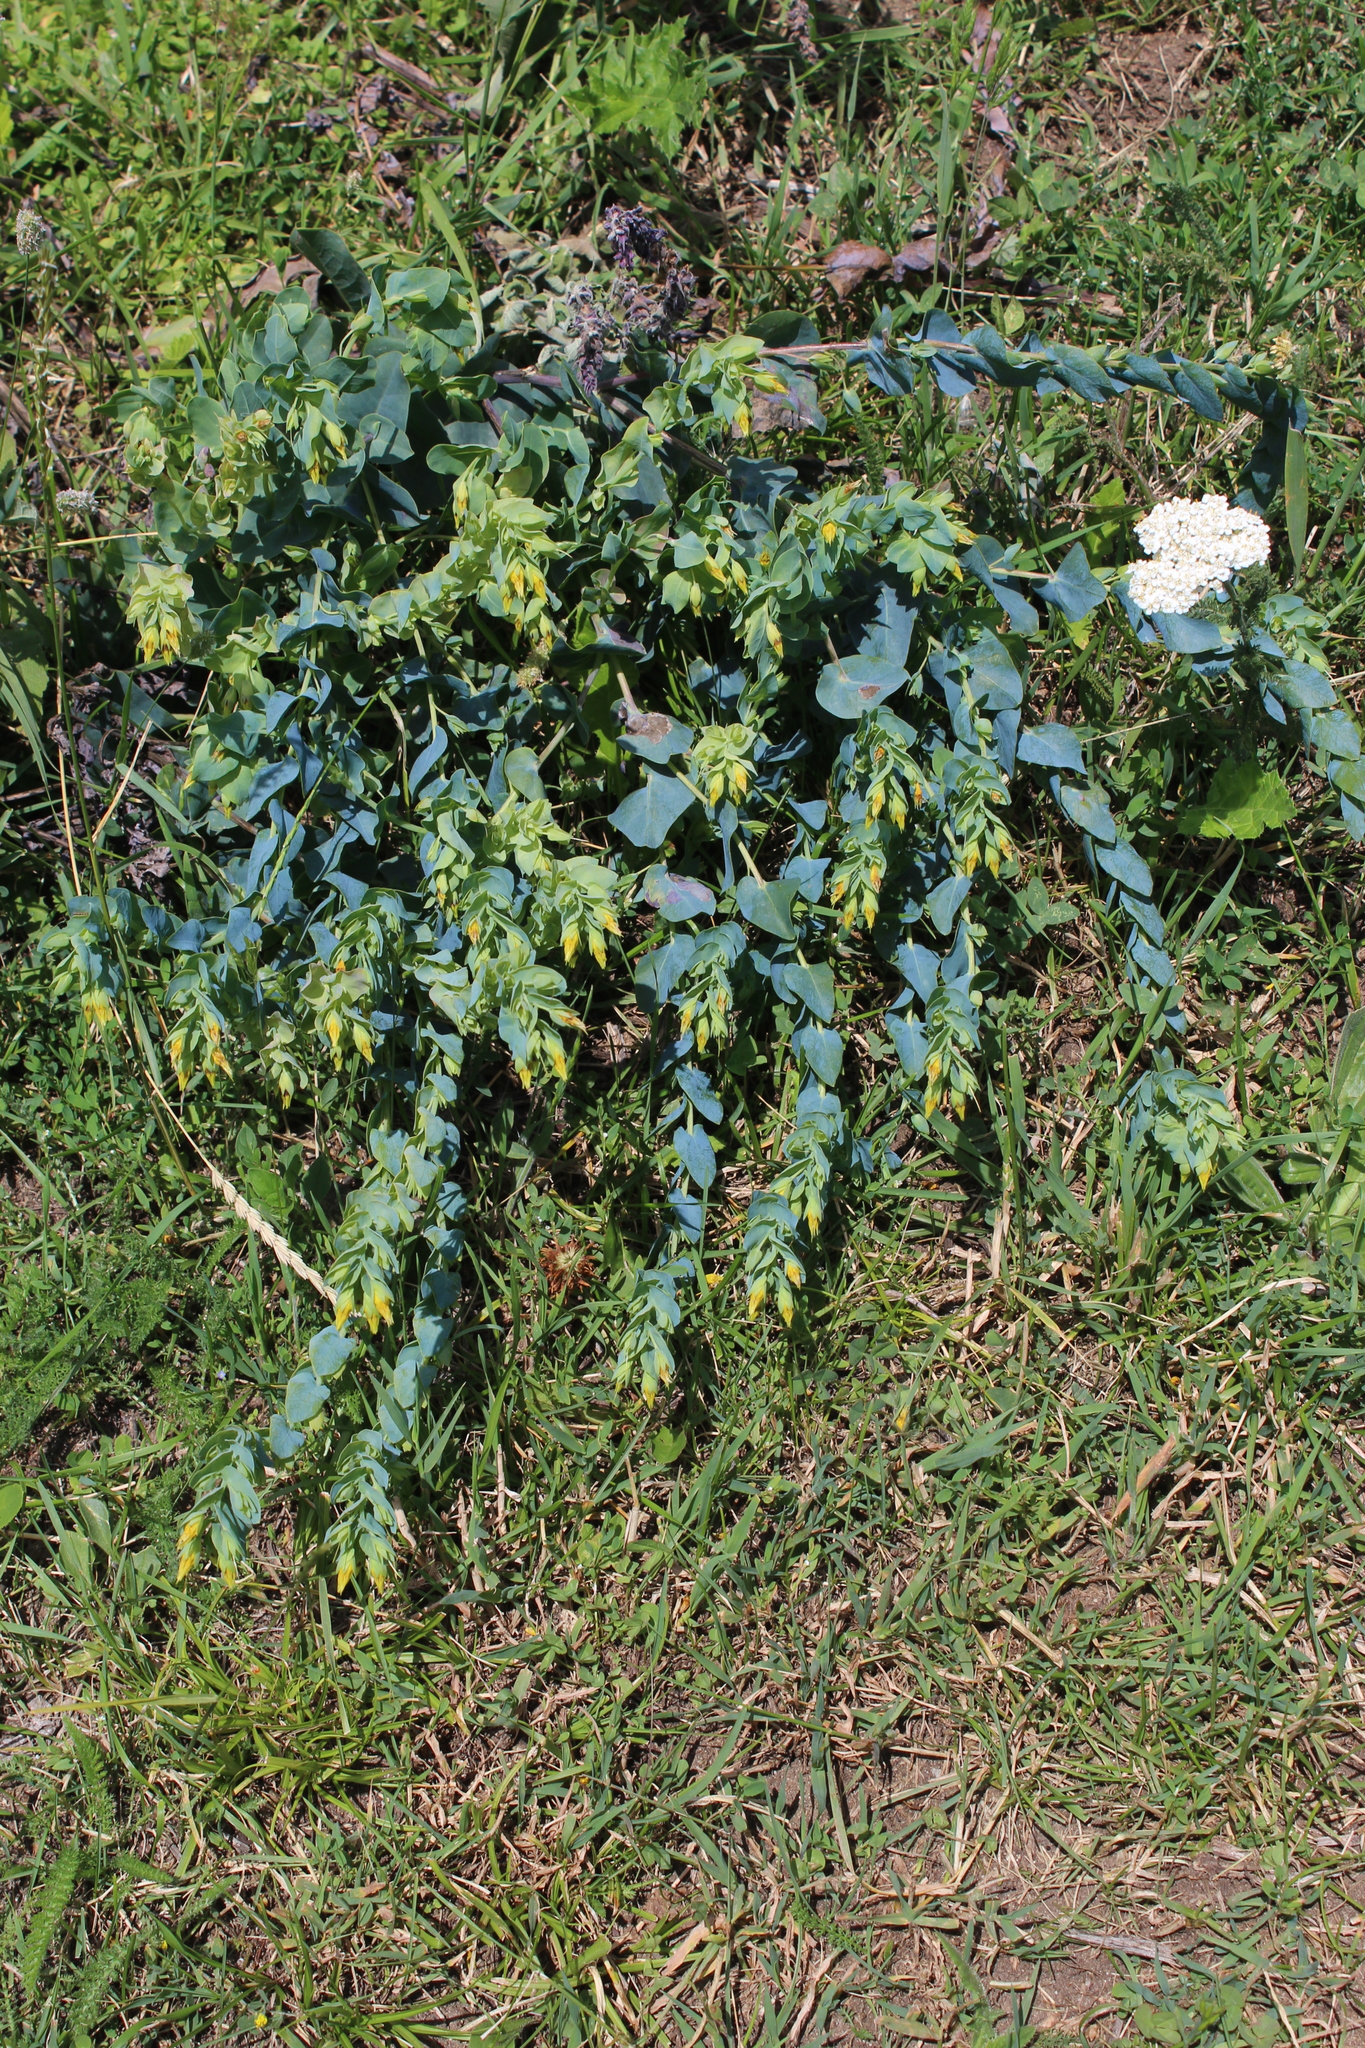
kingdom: Plantae
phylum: Tracheophyta
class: Magnoliopsida
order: Boraginales
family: Boraginaceae
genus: Cerinthe
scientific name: Cerinthe minor
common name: Lesser honeywort
